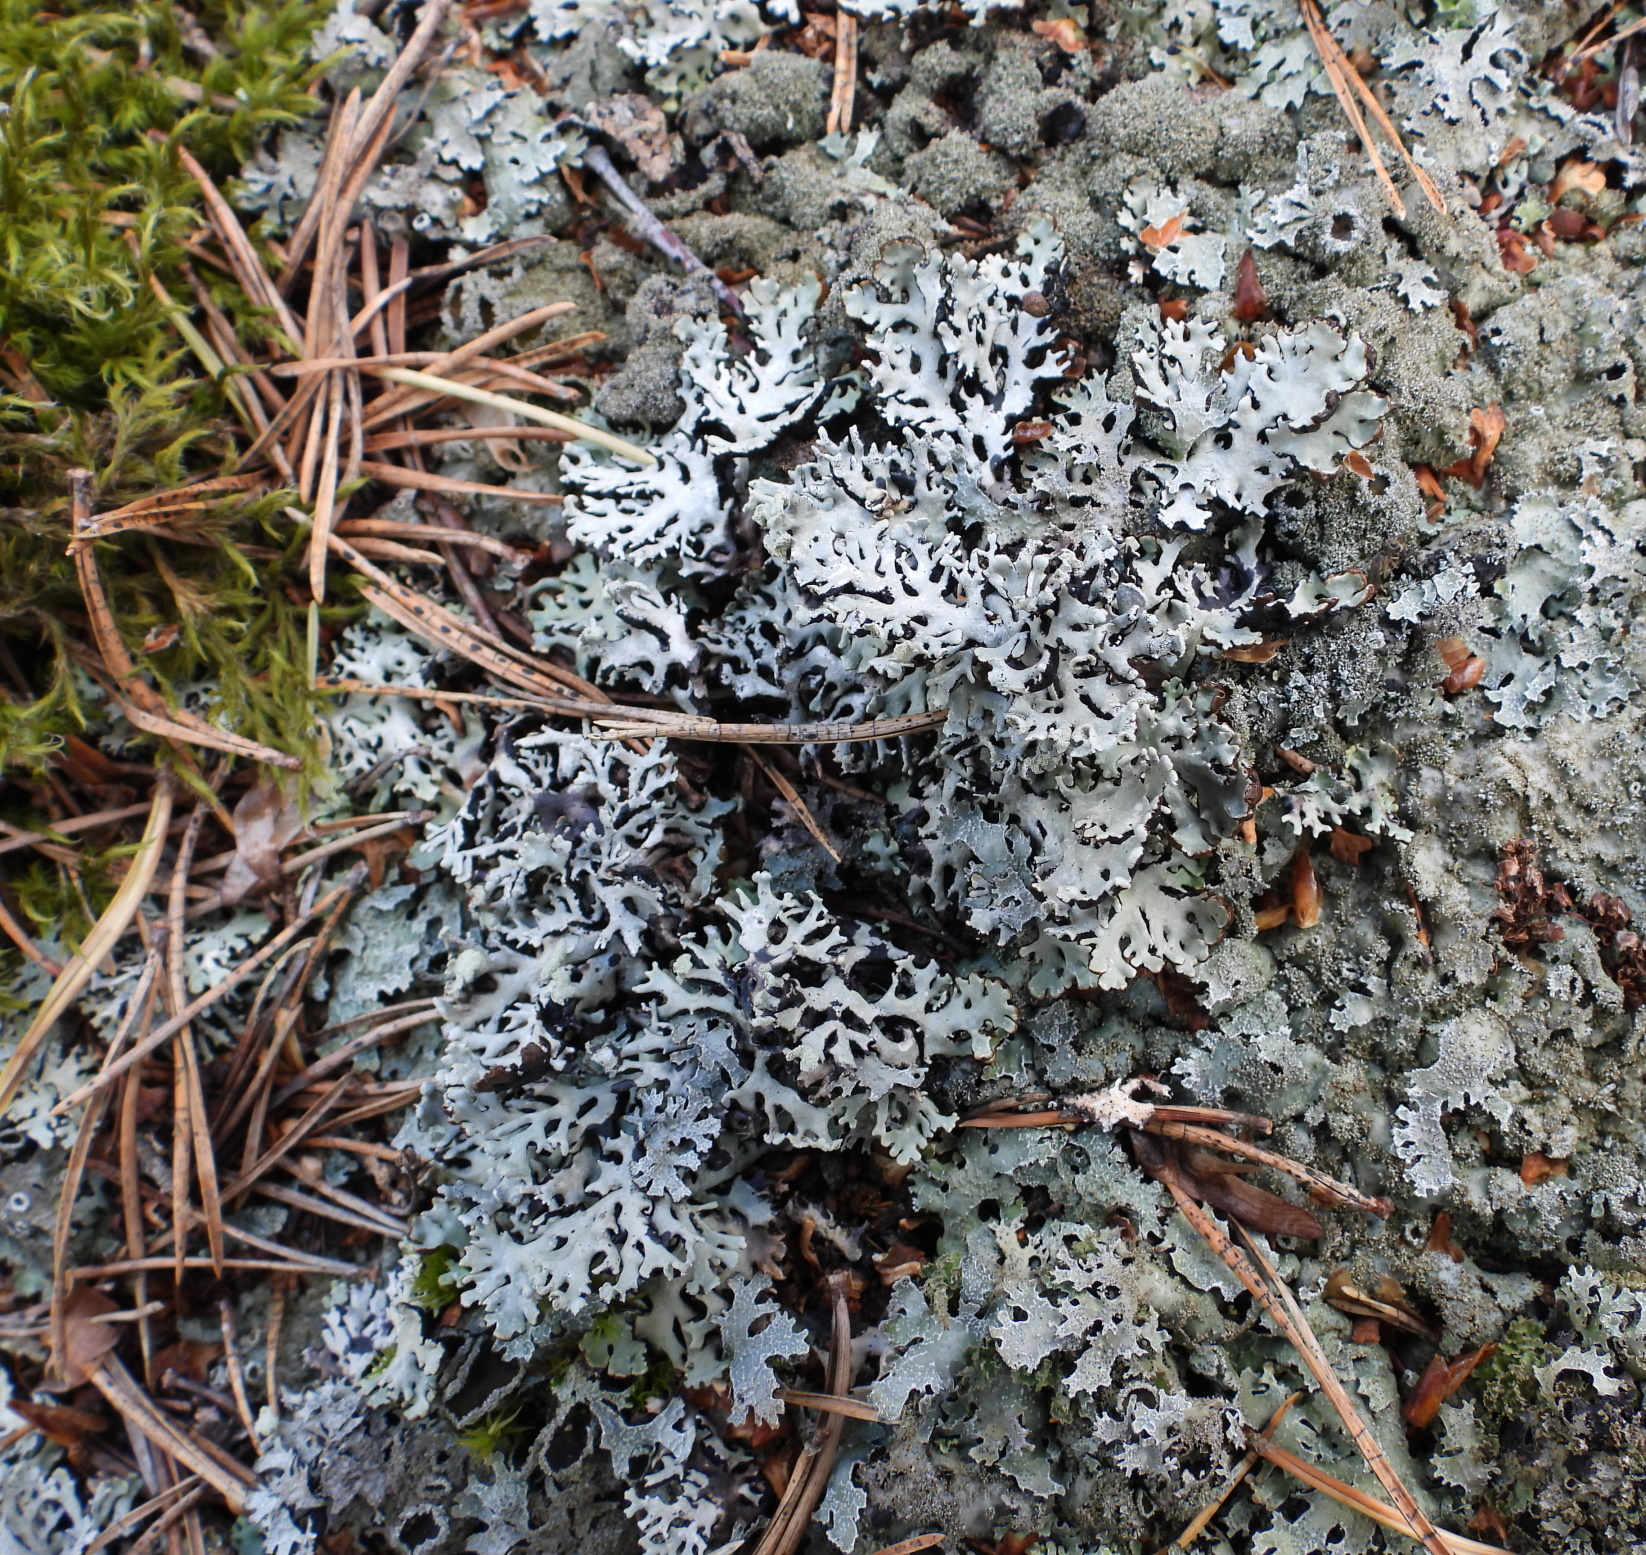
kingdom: Fungi
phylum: Ascomycota
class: Lecanoromycetes
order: Lecanorales
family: Parmeliaceae
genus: Hypogymnia
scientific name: Hypogymnia physodes
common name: Dark crottle
